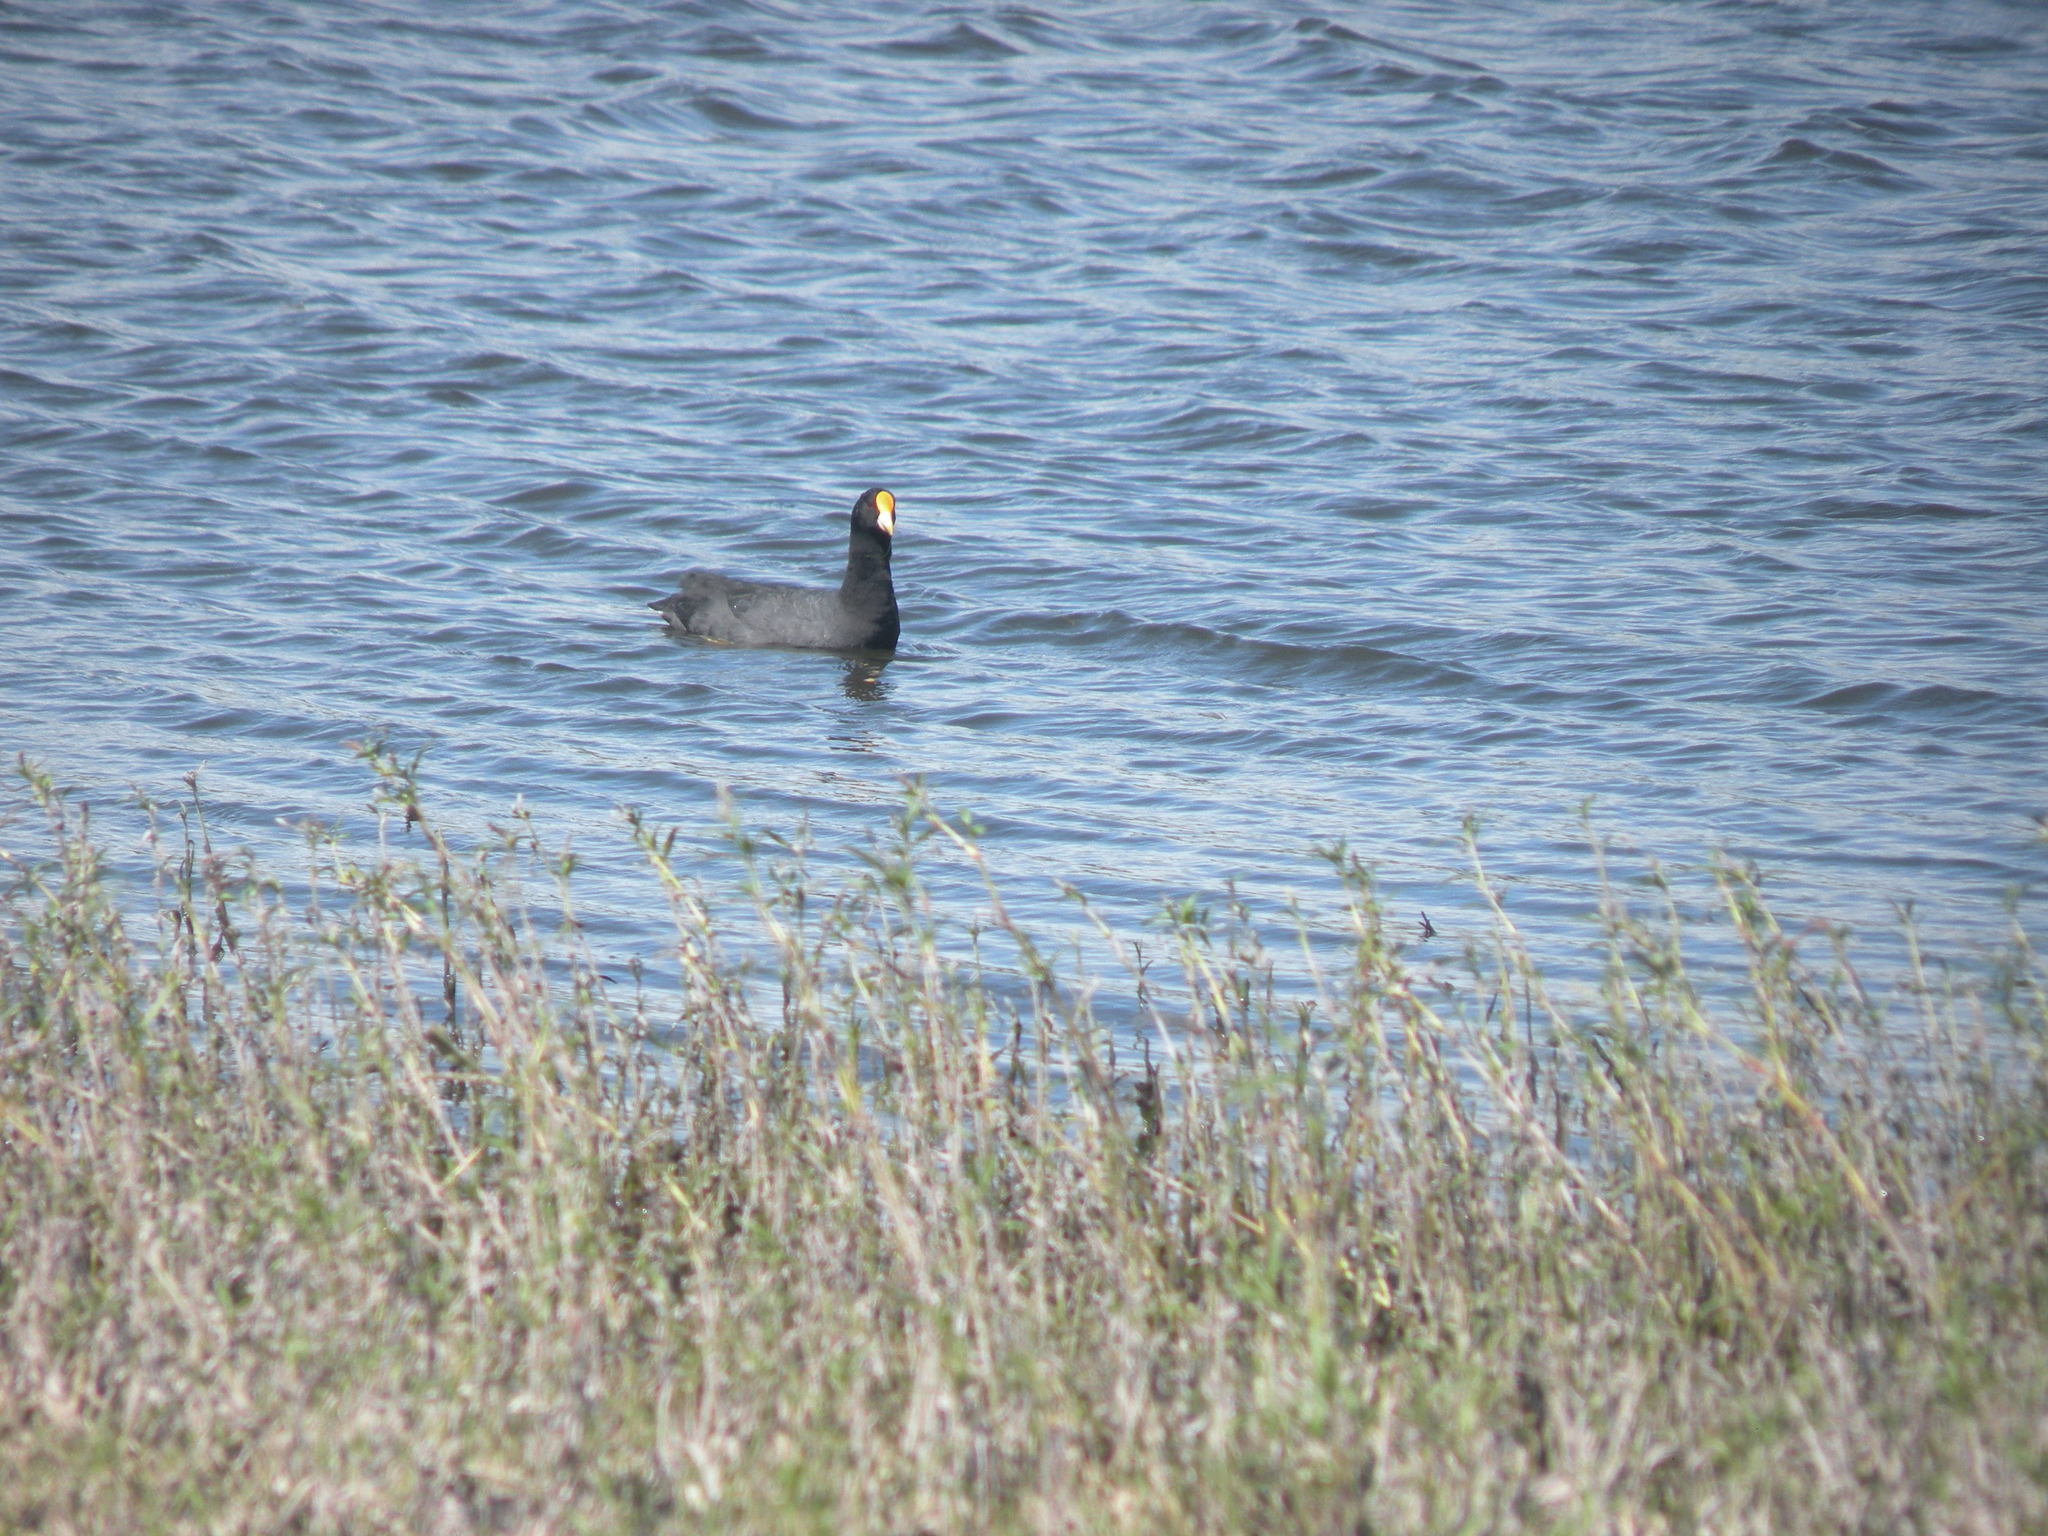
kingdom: Animalia
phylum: Chordata
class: Aves
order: Gruiformes
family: Rallidae
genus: Fulica
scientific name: Fulica leucoptera
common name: White-winged coot
